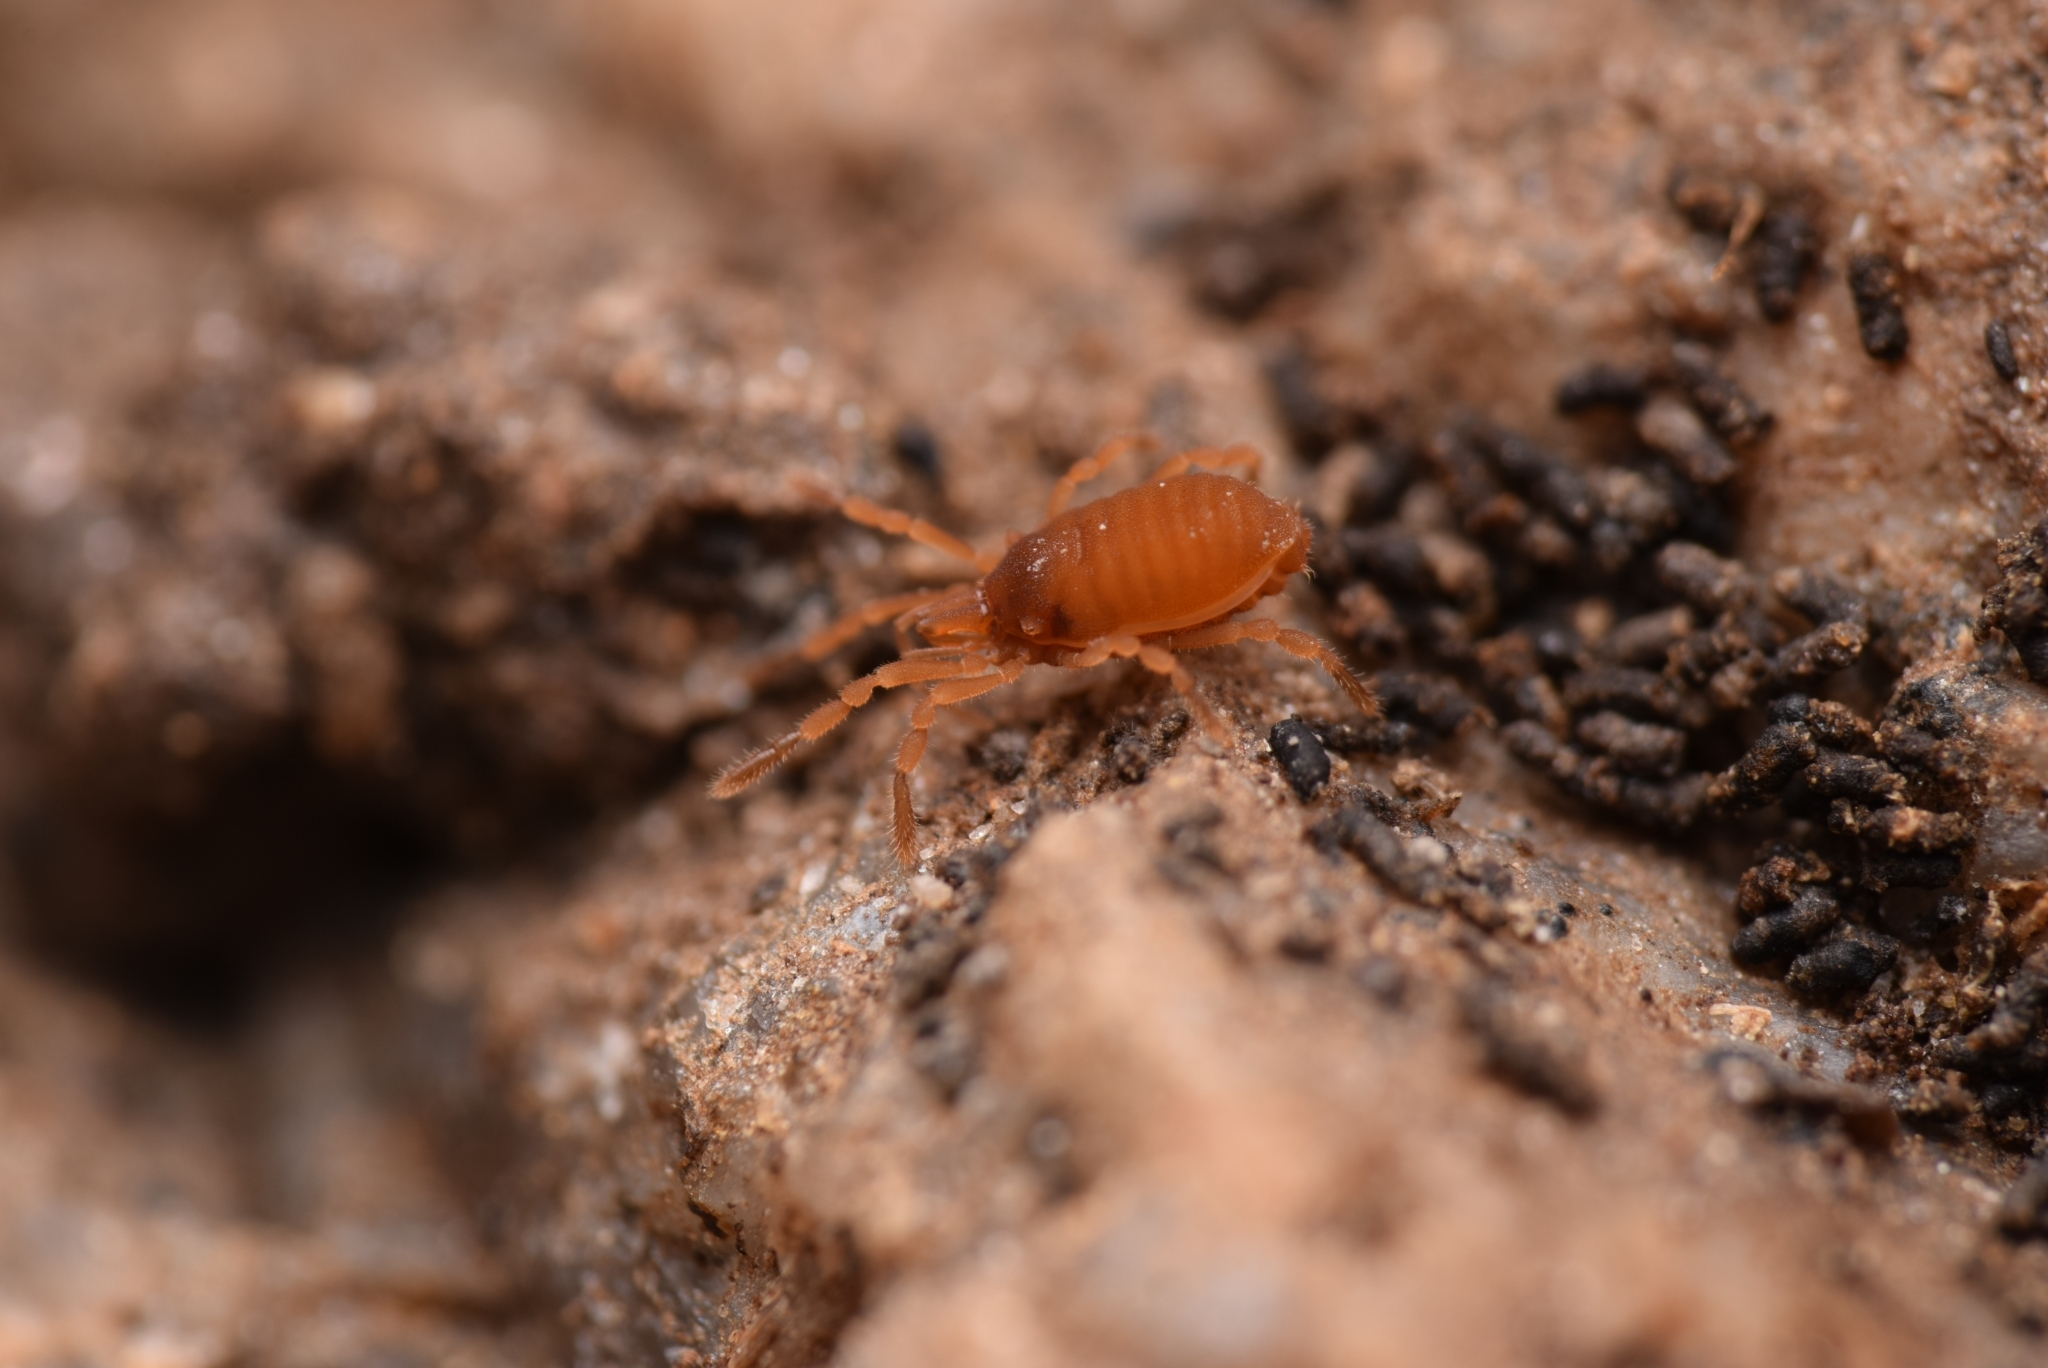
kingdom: Animalia
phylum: Arthropoda
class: Arachnida
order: Opiliones
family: Sironidae
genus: Siro
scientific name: Siro rubens
